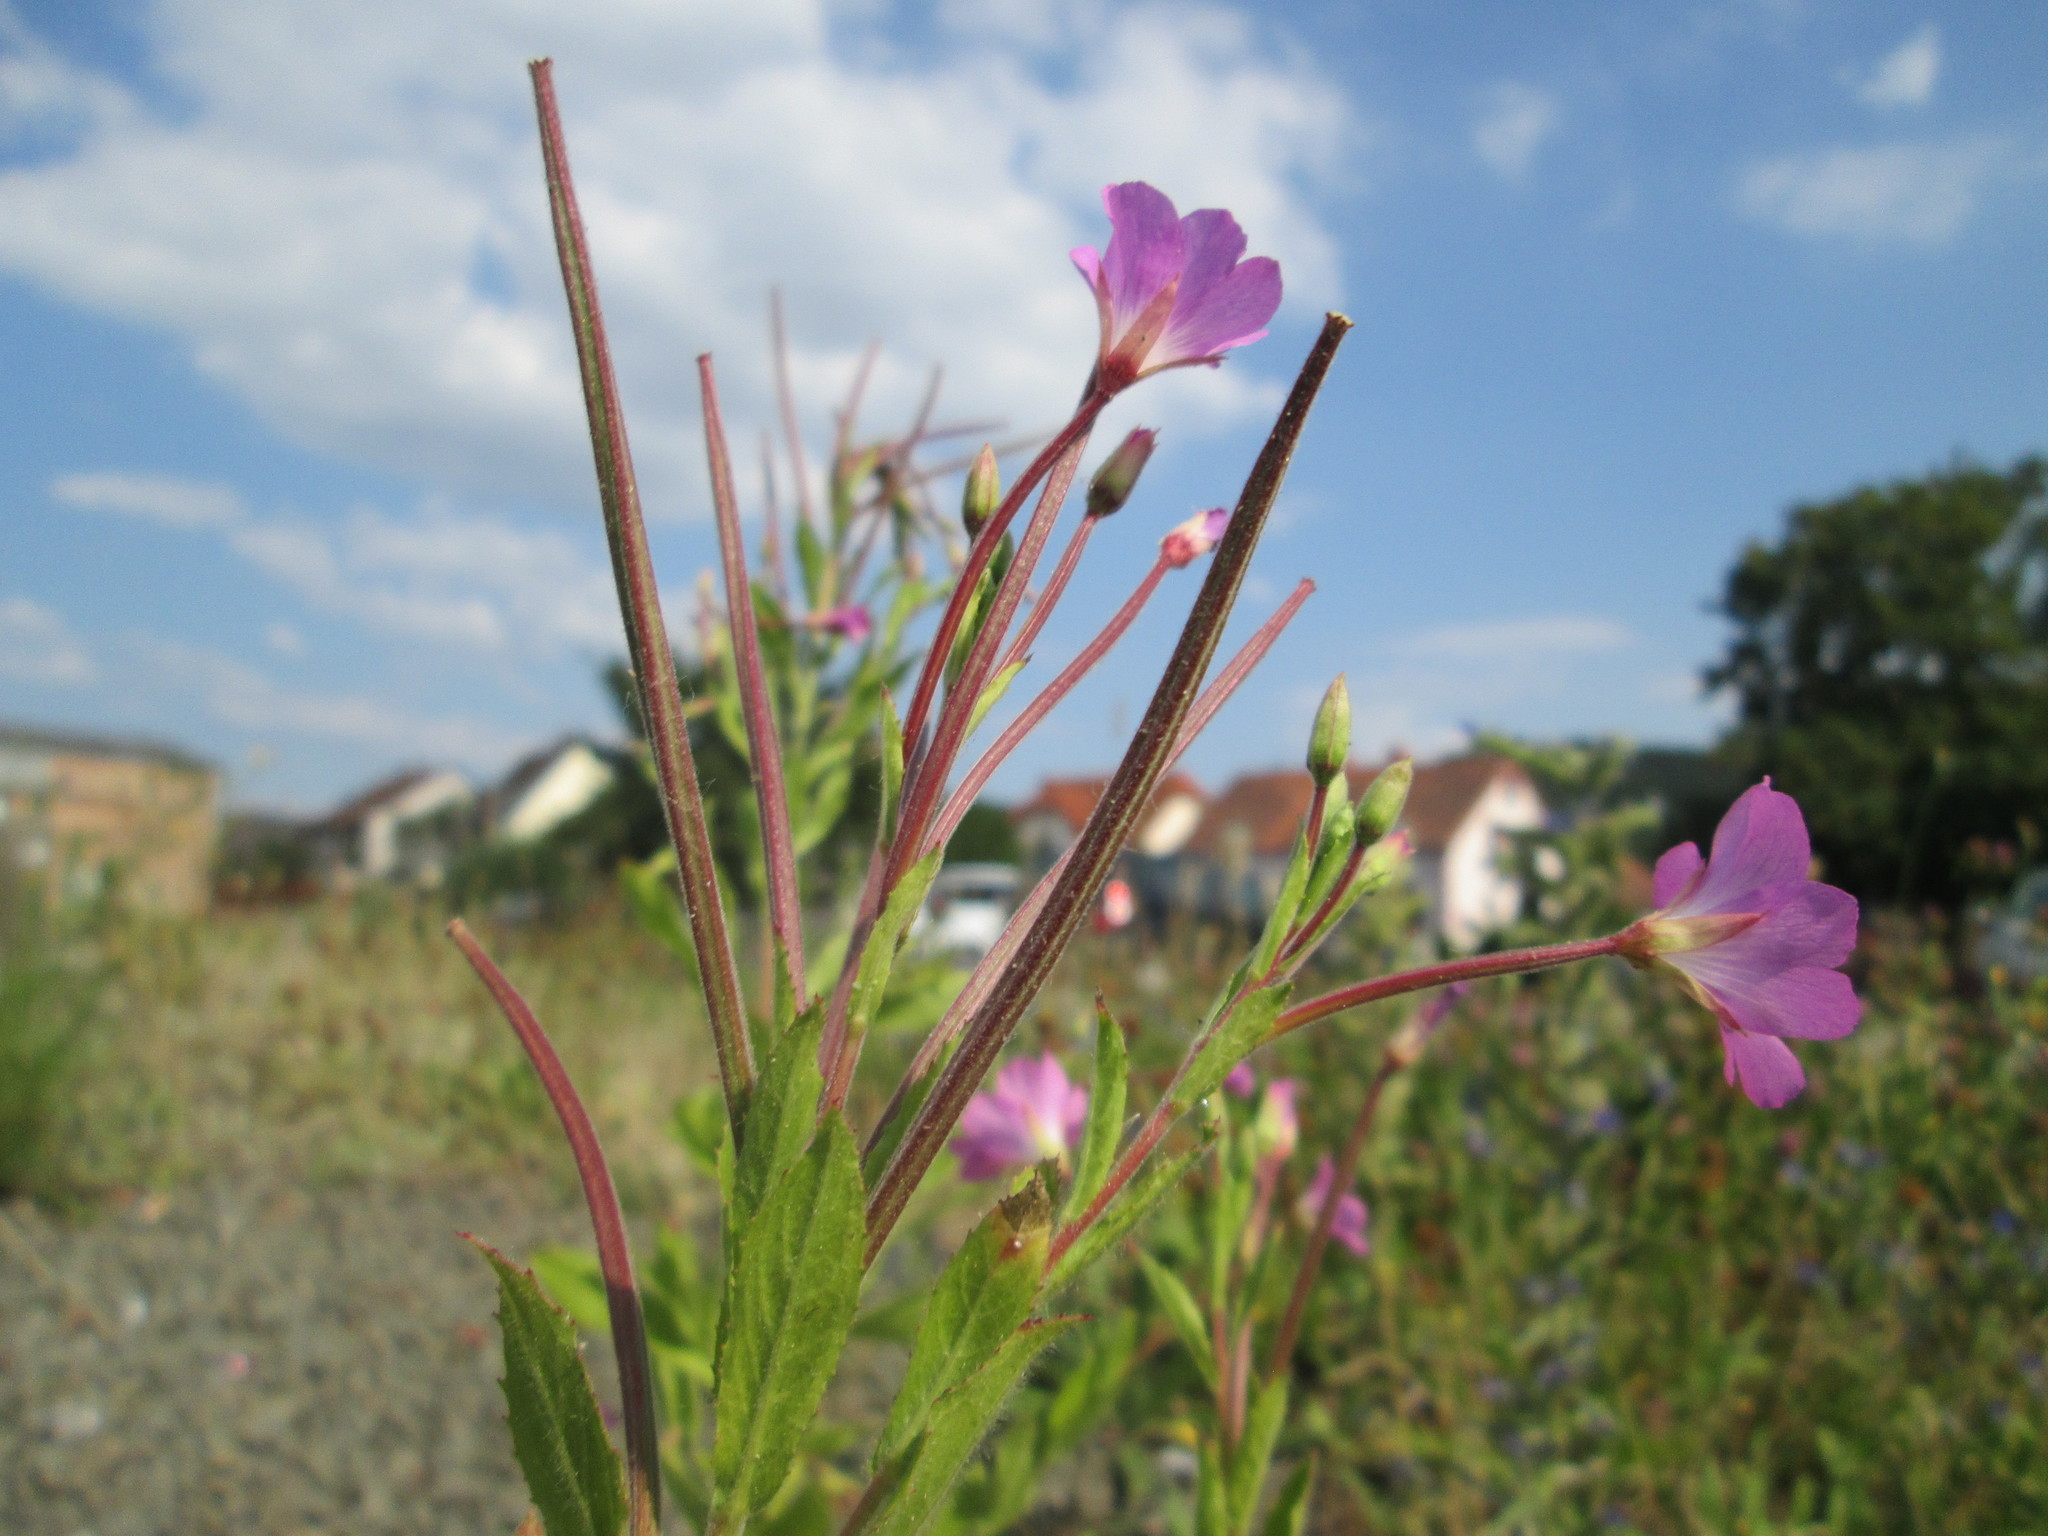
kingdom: Plantae
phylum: Tracheophyta
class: Magnoliopsida
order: Myrtales
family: Onagraceae
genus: Epilobium
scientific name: Epilobium hirsutum
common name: Great willowherb
